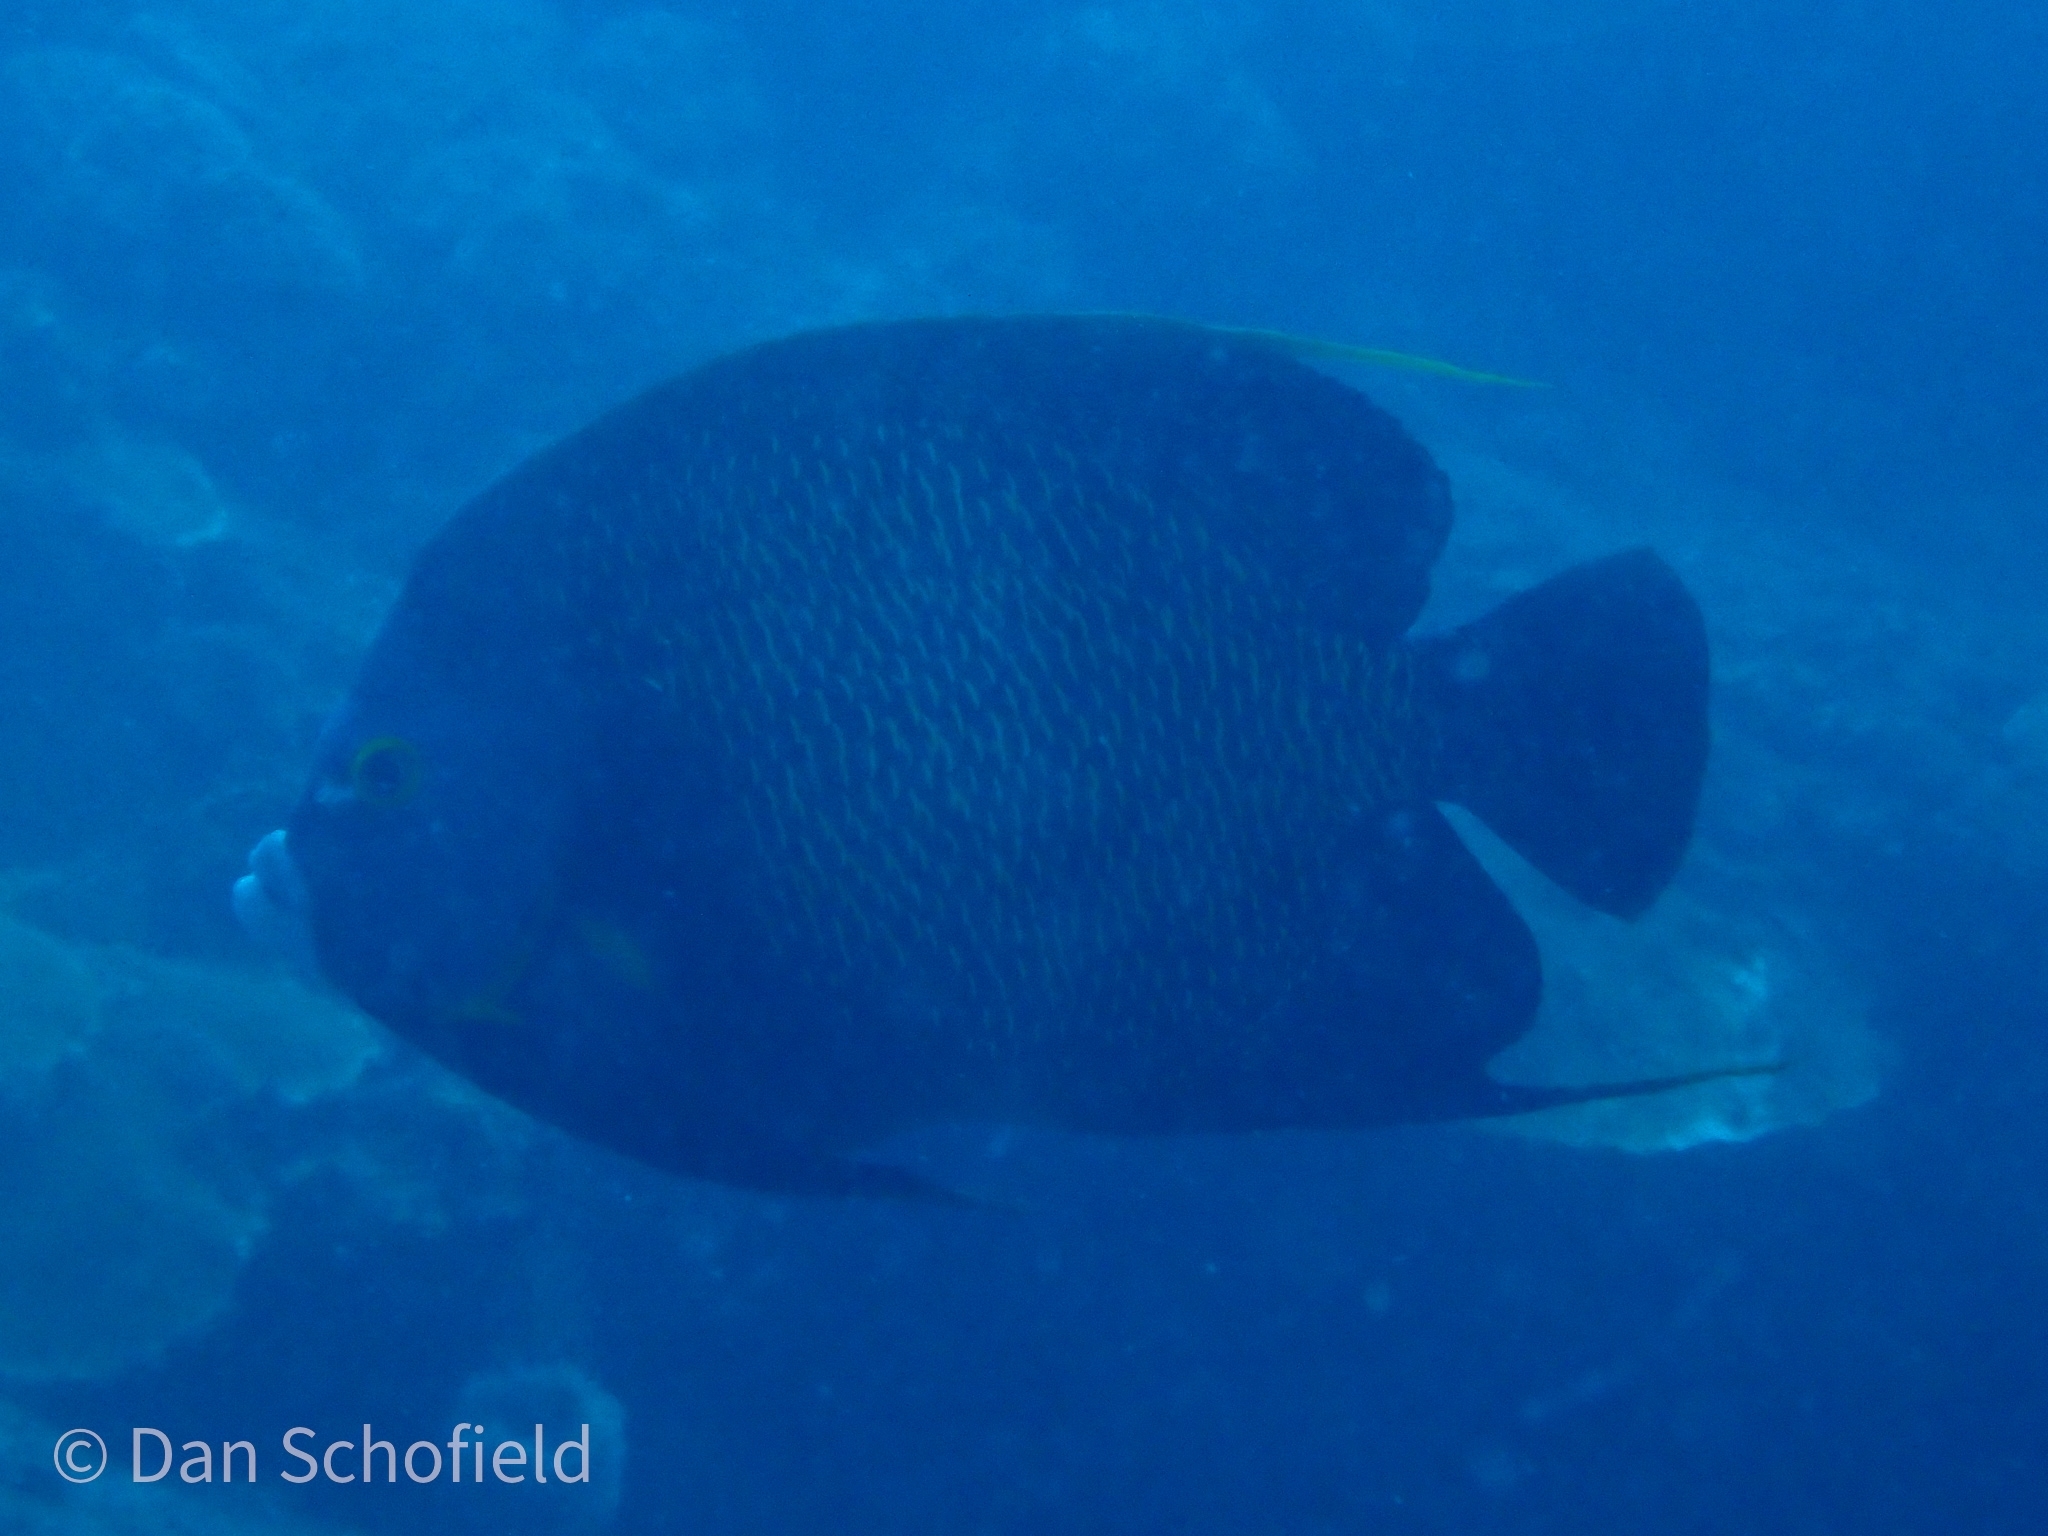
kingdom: Animalia
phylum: Chordata
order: Perciformes
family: Pomacanthidae
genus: Pomacanthus
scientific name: Pomacanthus paru
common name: French angelfish
